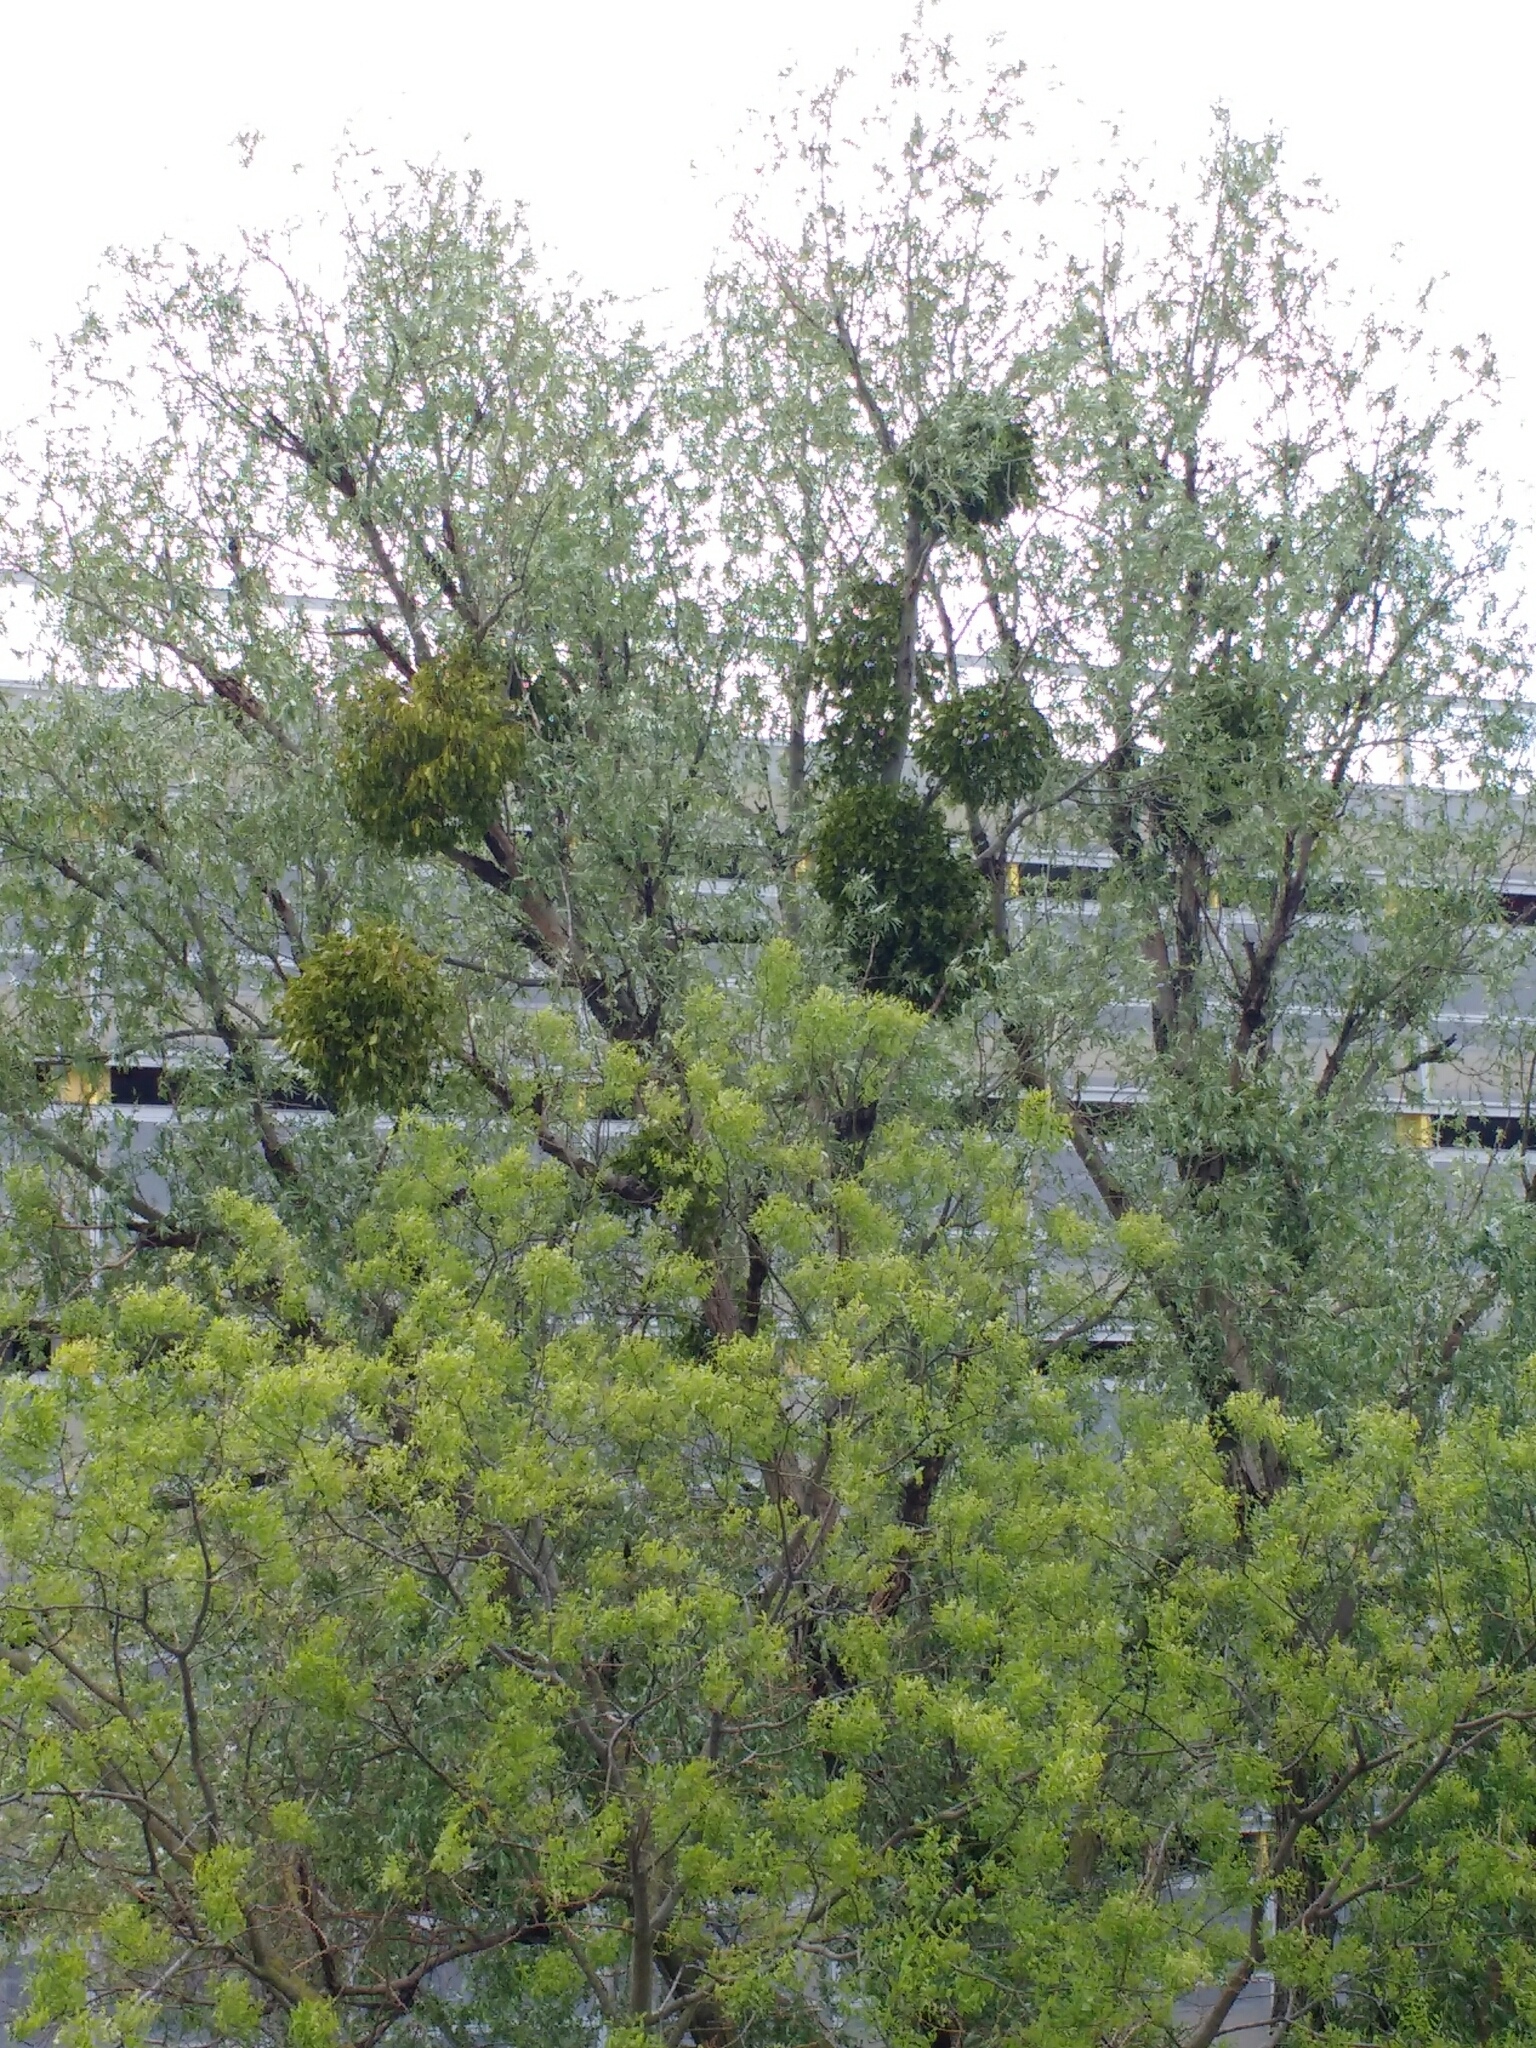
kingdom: Plantae
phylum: Tracheophyta
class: Magnoliopsida
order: Santalales
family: Viscaceae
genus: Viscum
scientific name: Viscum album
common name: Mistletoe
